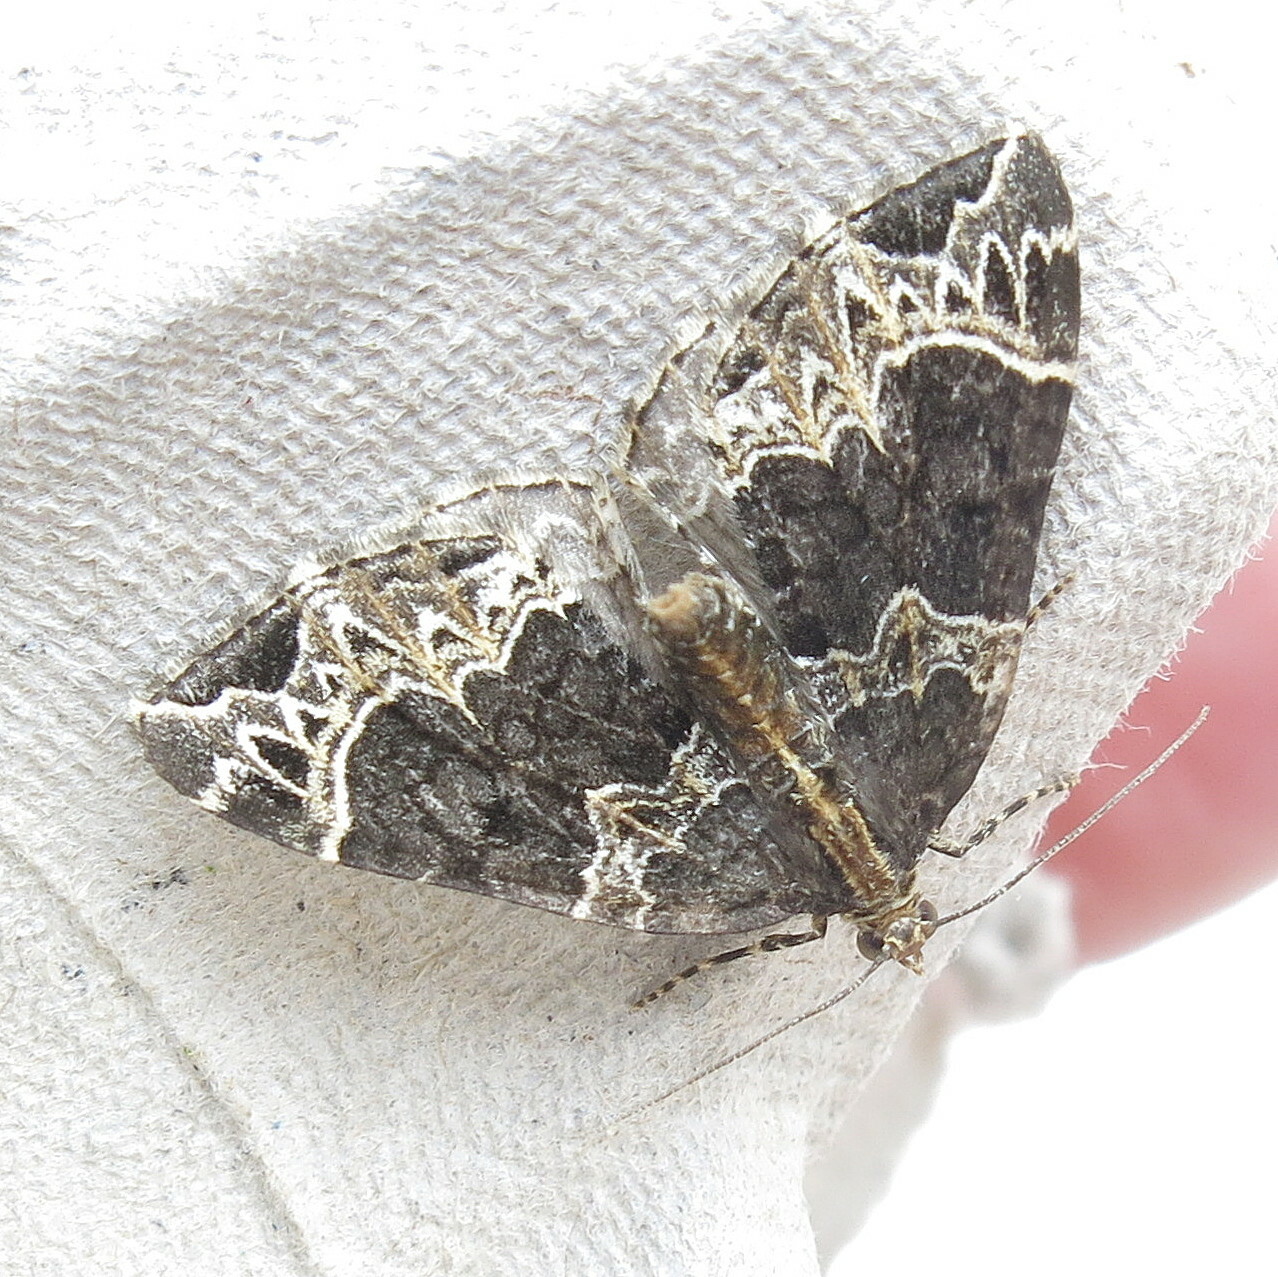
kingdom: Animalia
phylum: Arthropoda
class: Insecta
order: Lepidoptera
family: Geometridae
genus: Ecliptopera
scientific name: Ecliptopera silaceata
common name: Small phoenix
